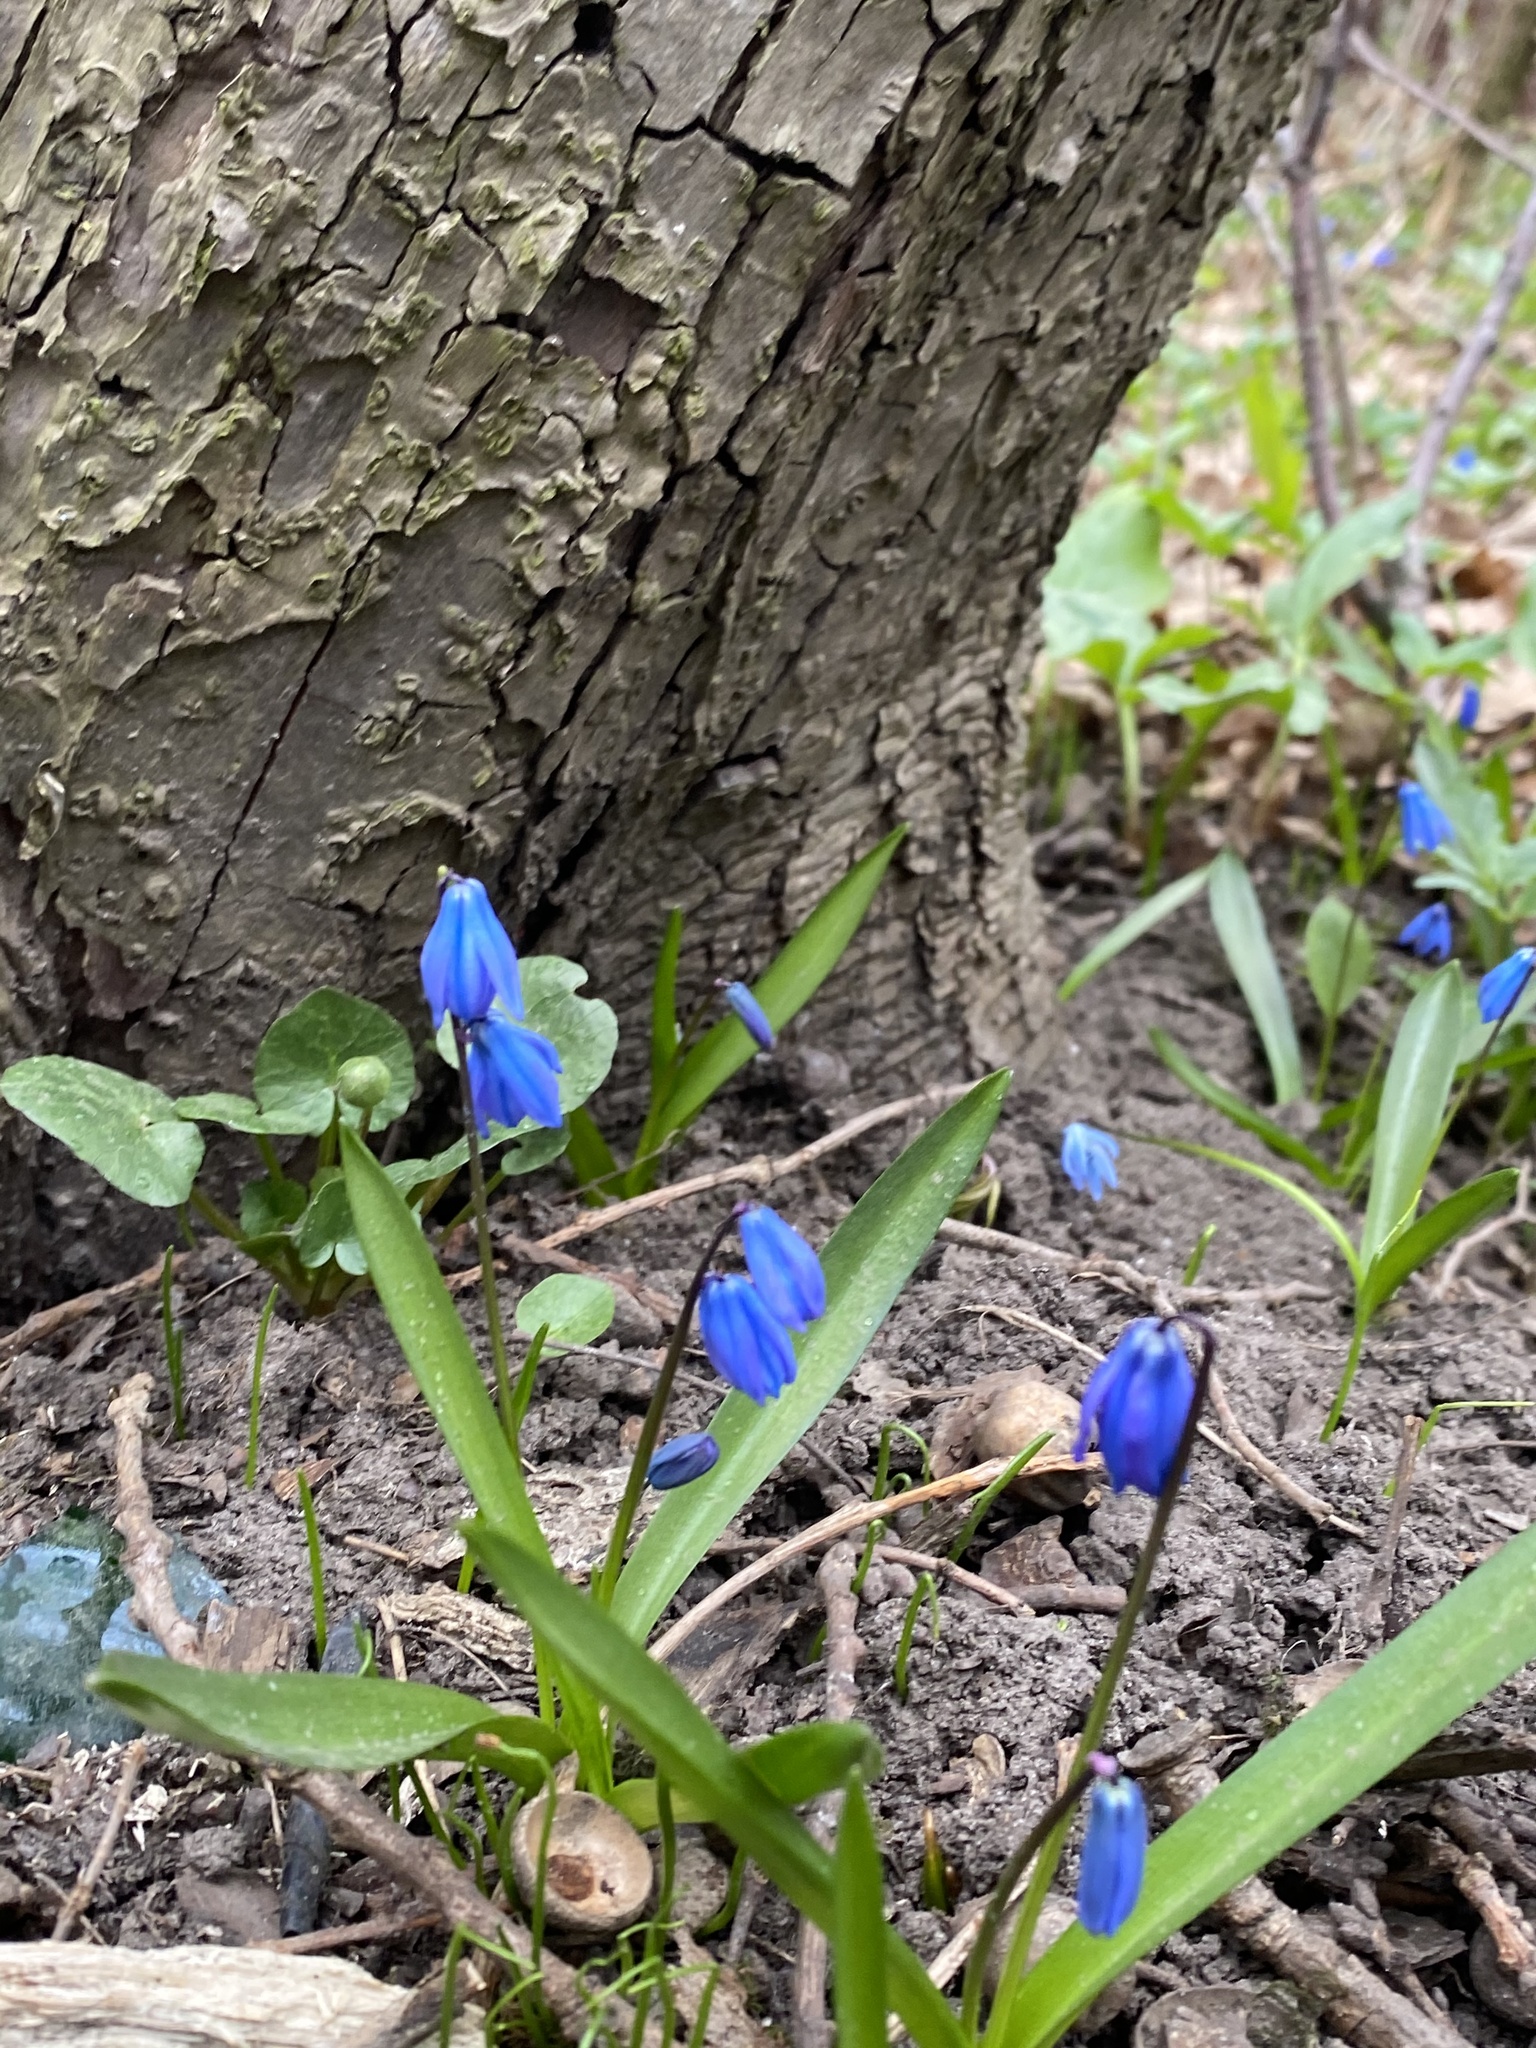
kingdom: Plantae
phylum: Tracheophyta
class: Liliopsida
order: Asparagales
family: Asparagaceae
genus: Scilla
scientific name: Scilla siberica
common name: Siberian squill
